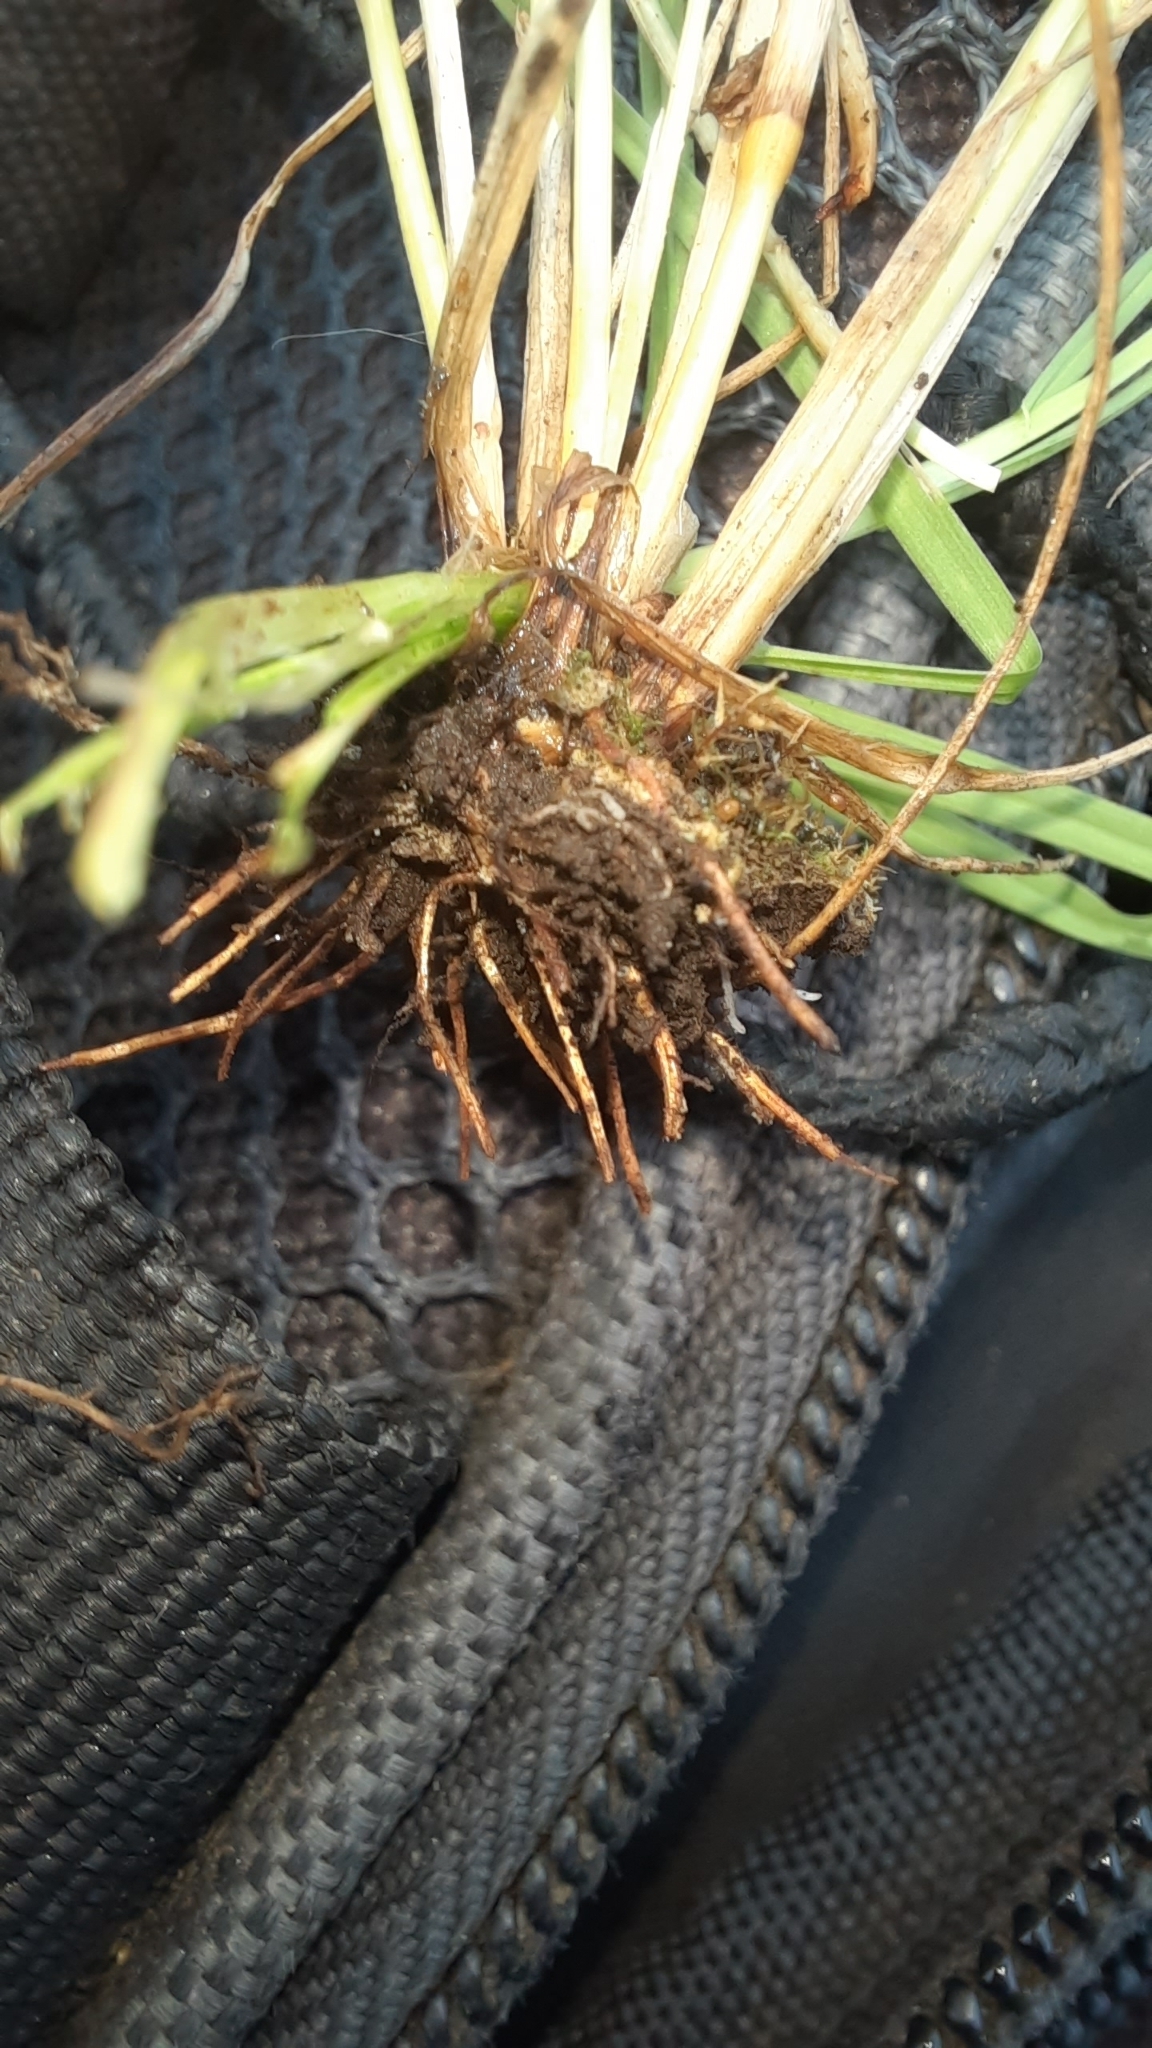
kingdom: Plantae
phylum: Tracheophyta
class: Liliopsida
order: Poales
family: Juncaceae
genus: Juncus
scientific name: Juncus bufonius
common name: Toad rush
